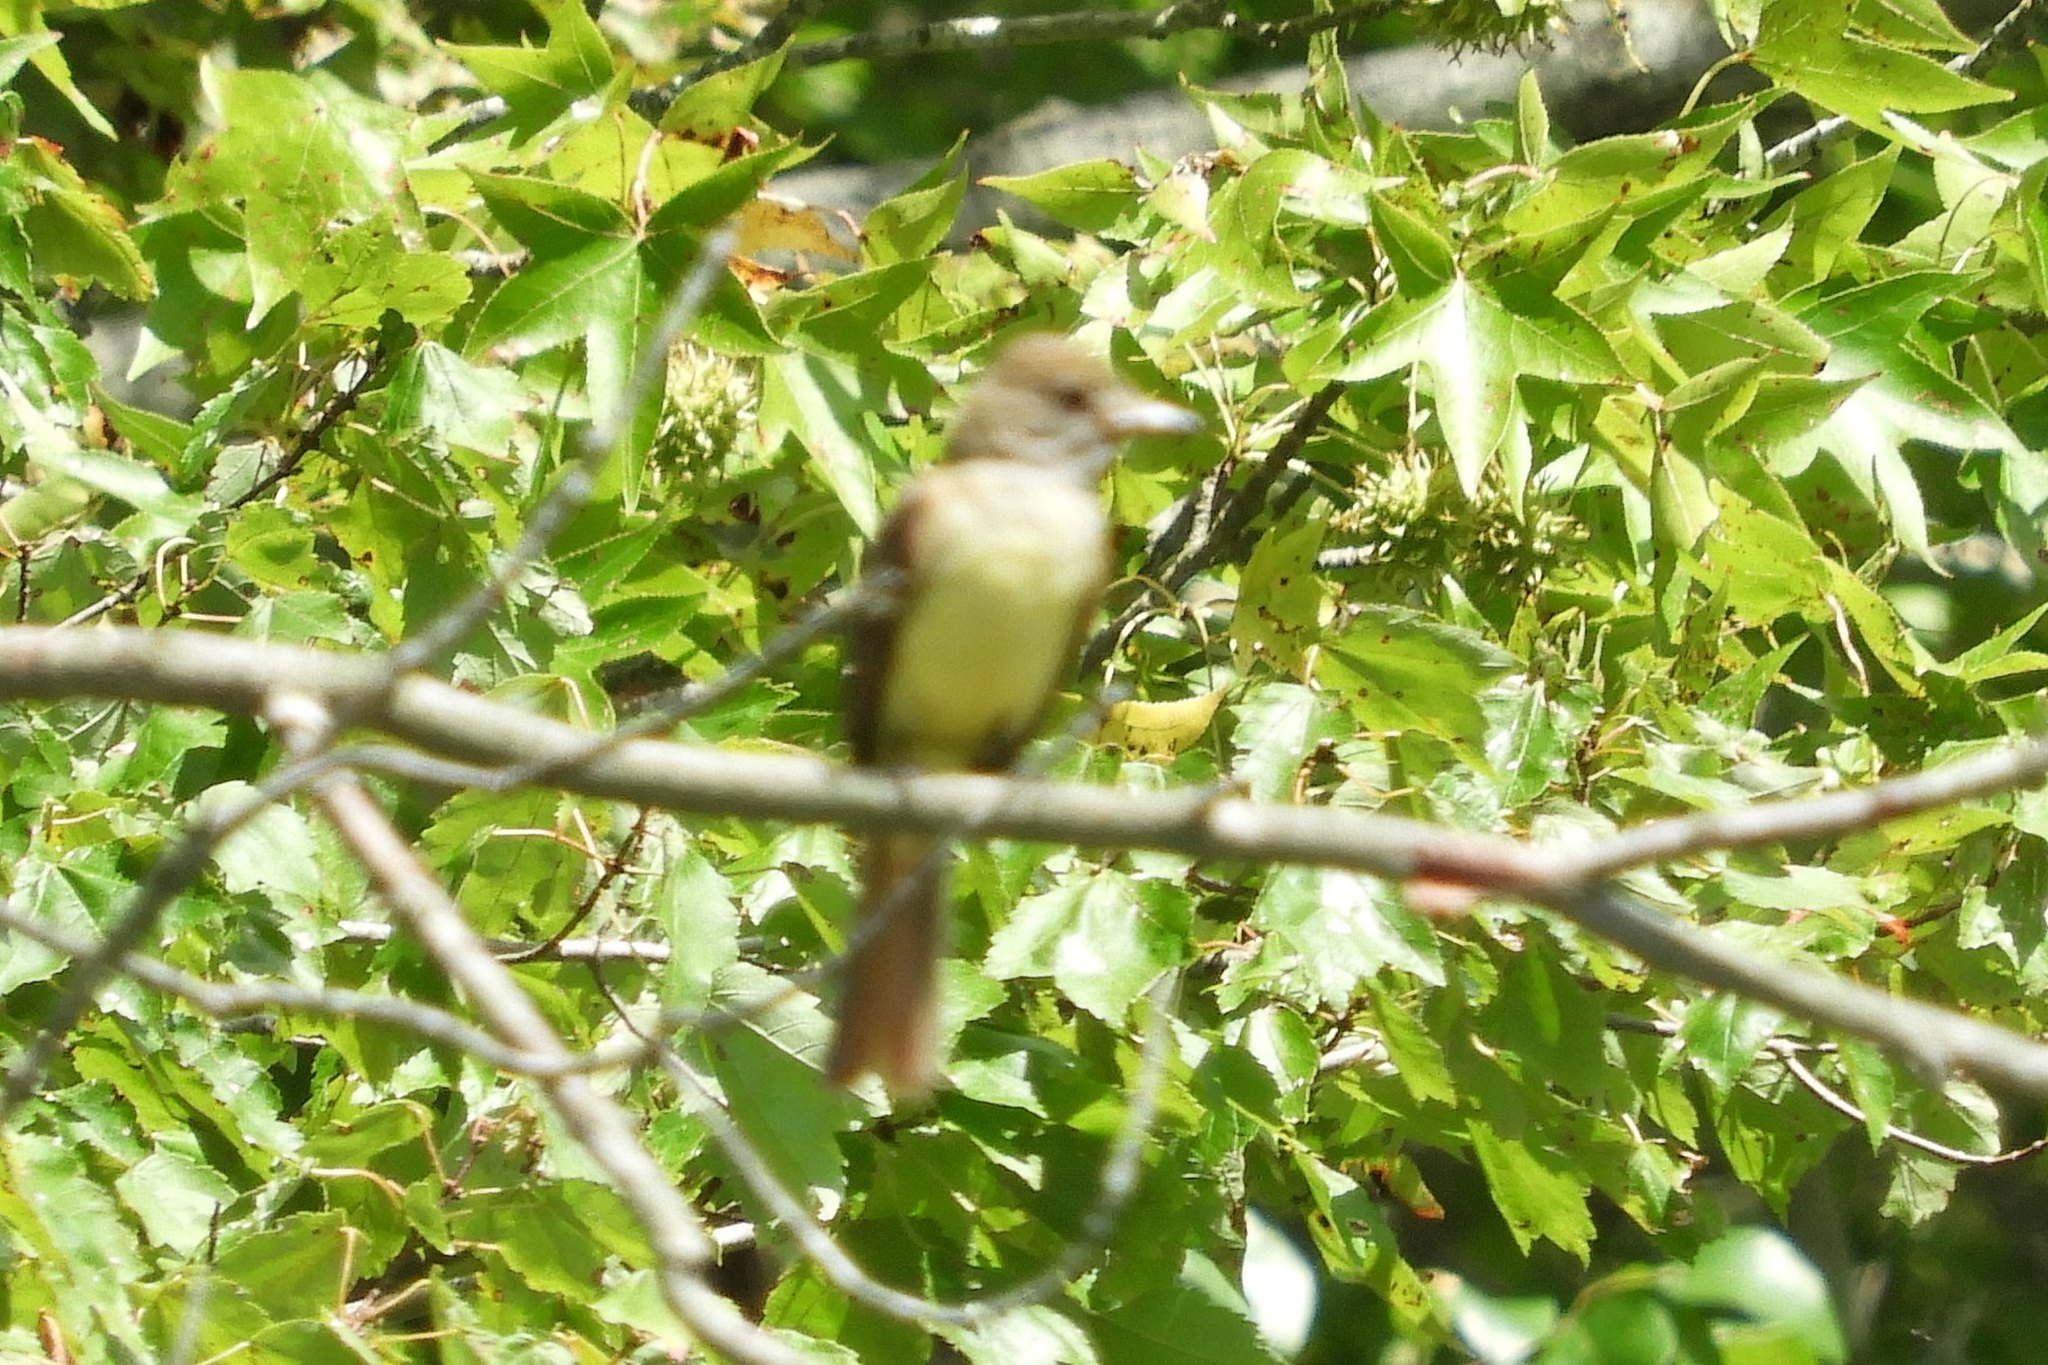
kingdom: Animalia
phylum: Chordata
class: Aves
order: Passeriformes
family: Tyrannidae
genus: Myiarchus
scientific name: Myiarchus crinitus
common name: Great crested flycatcher
